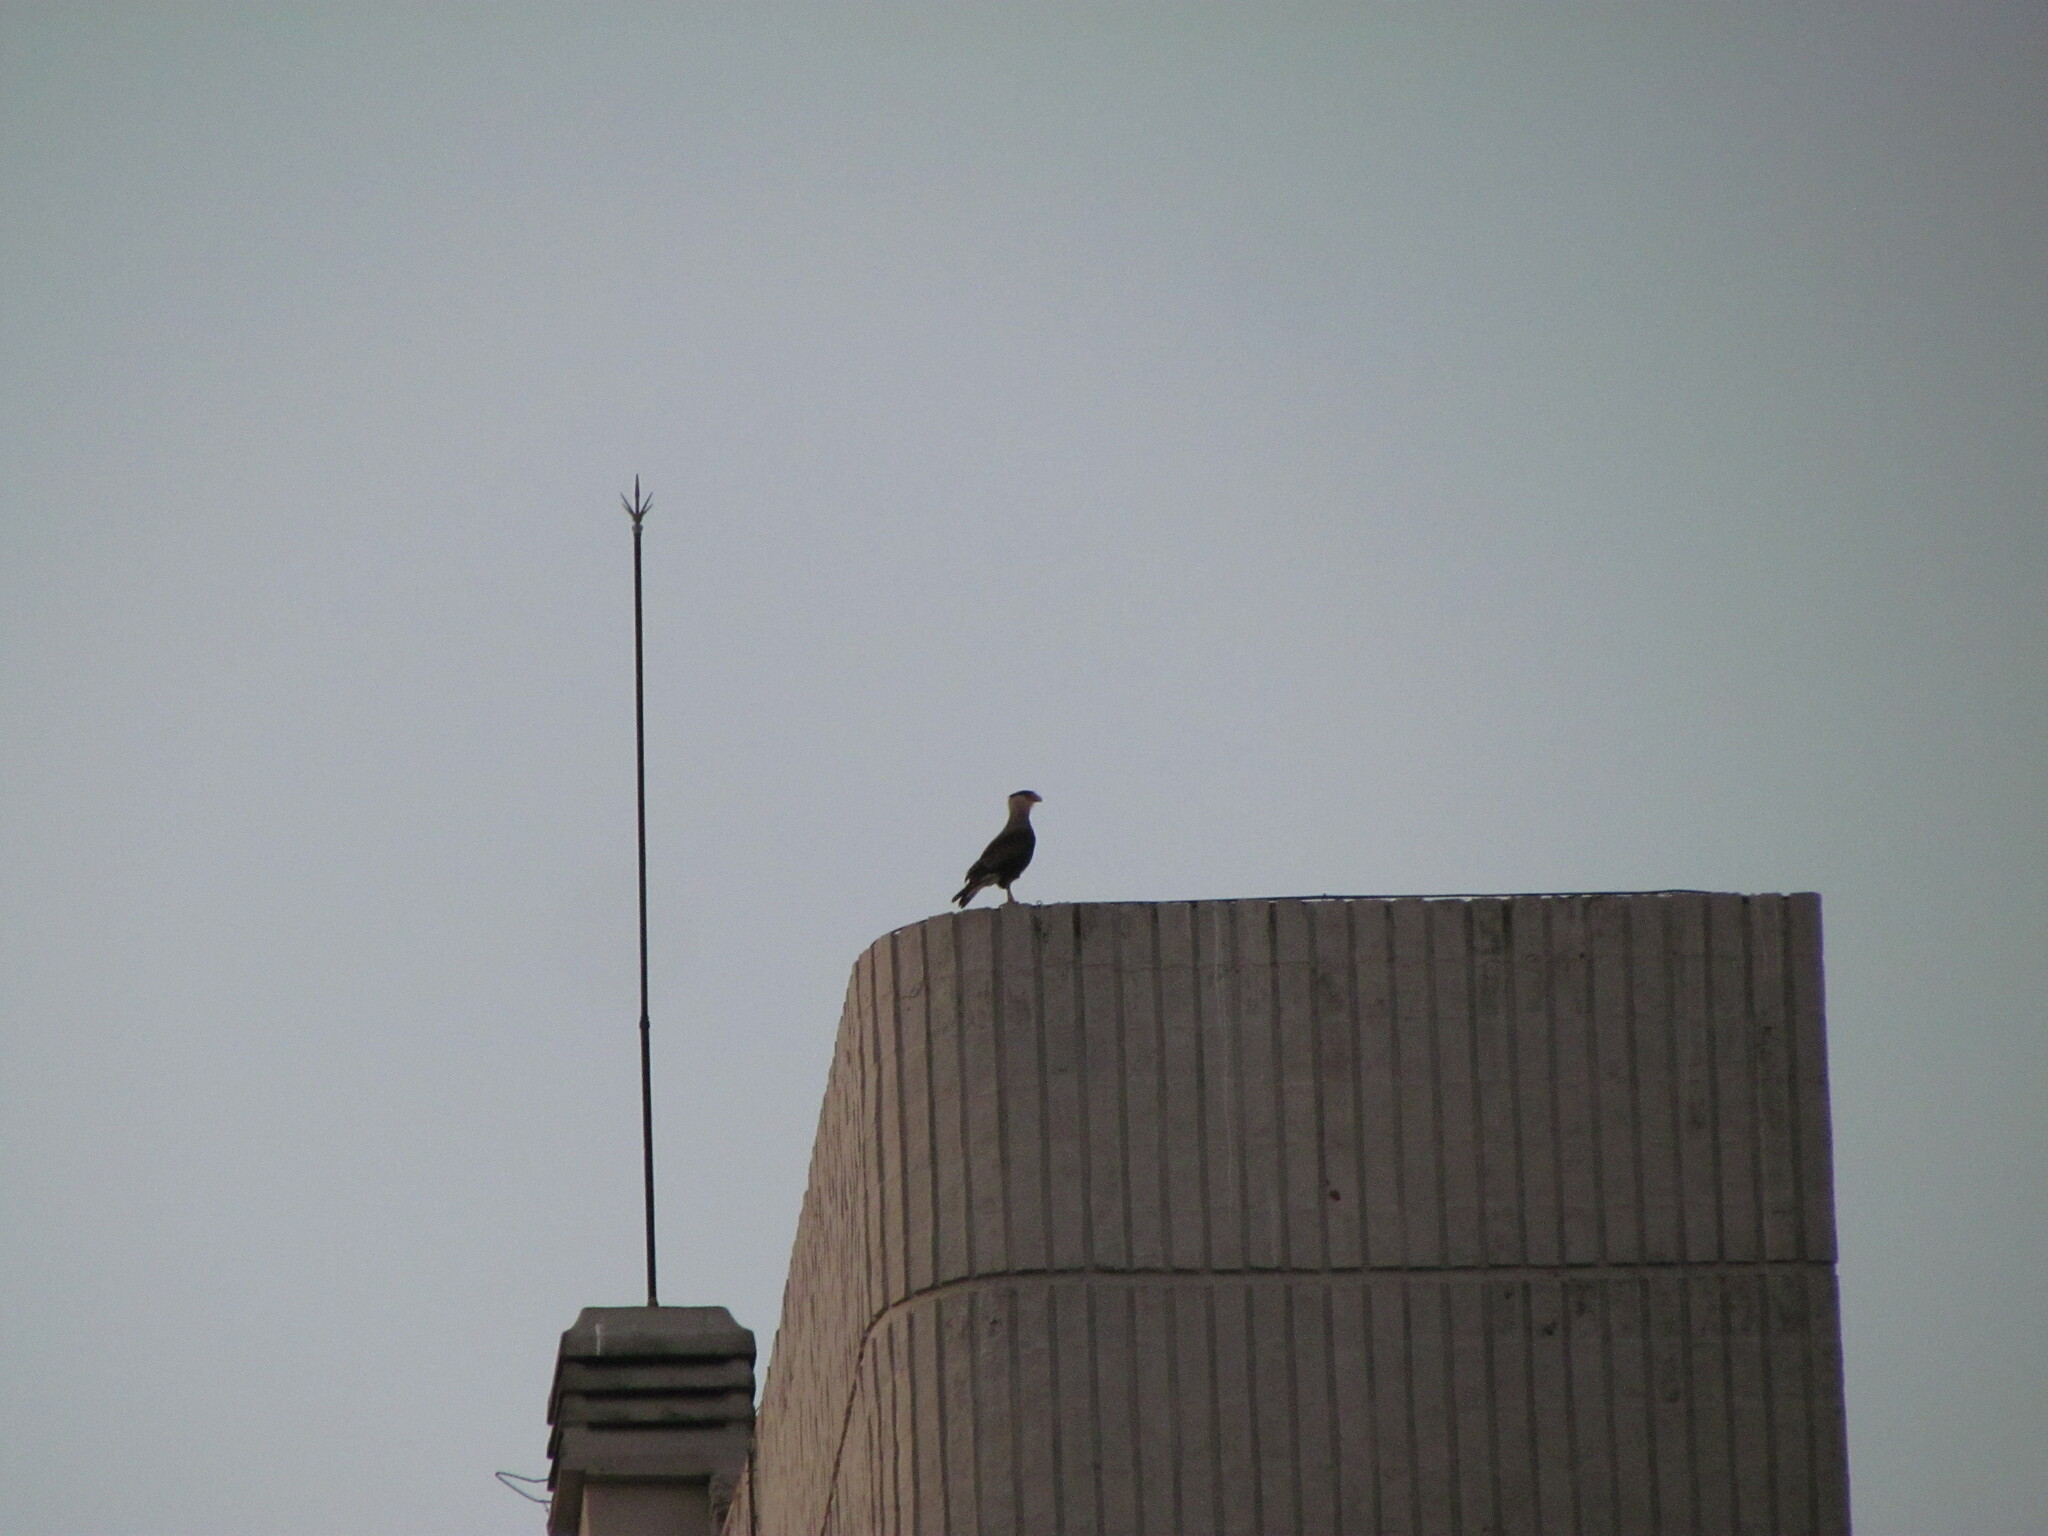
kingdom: Animalia
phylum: Chordata
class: Aves
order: Falconiformes
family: Falconidae
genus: Caracara
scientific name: Caracara plancus
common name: Southern caracara
